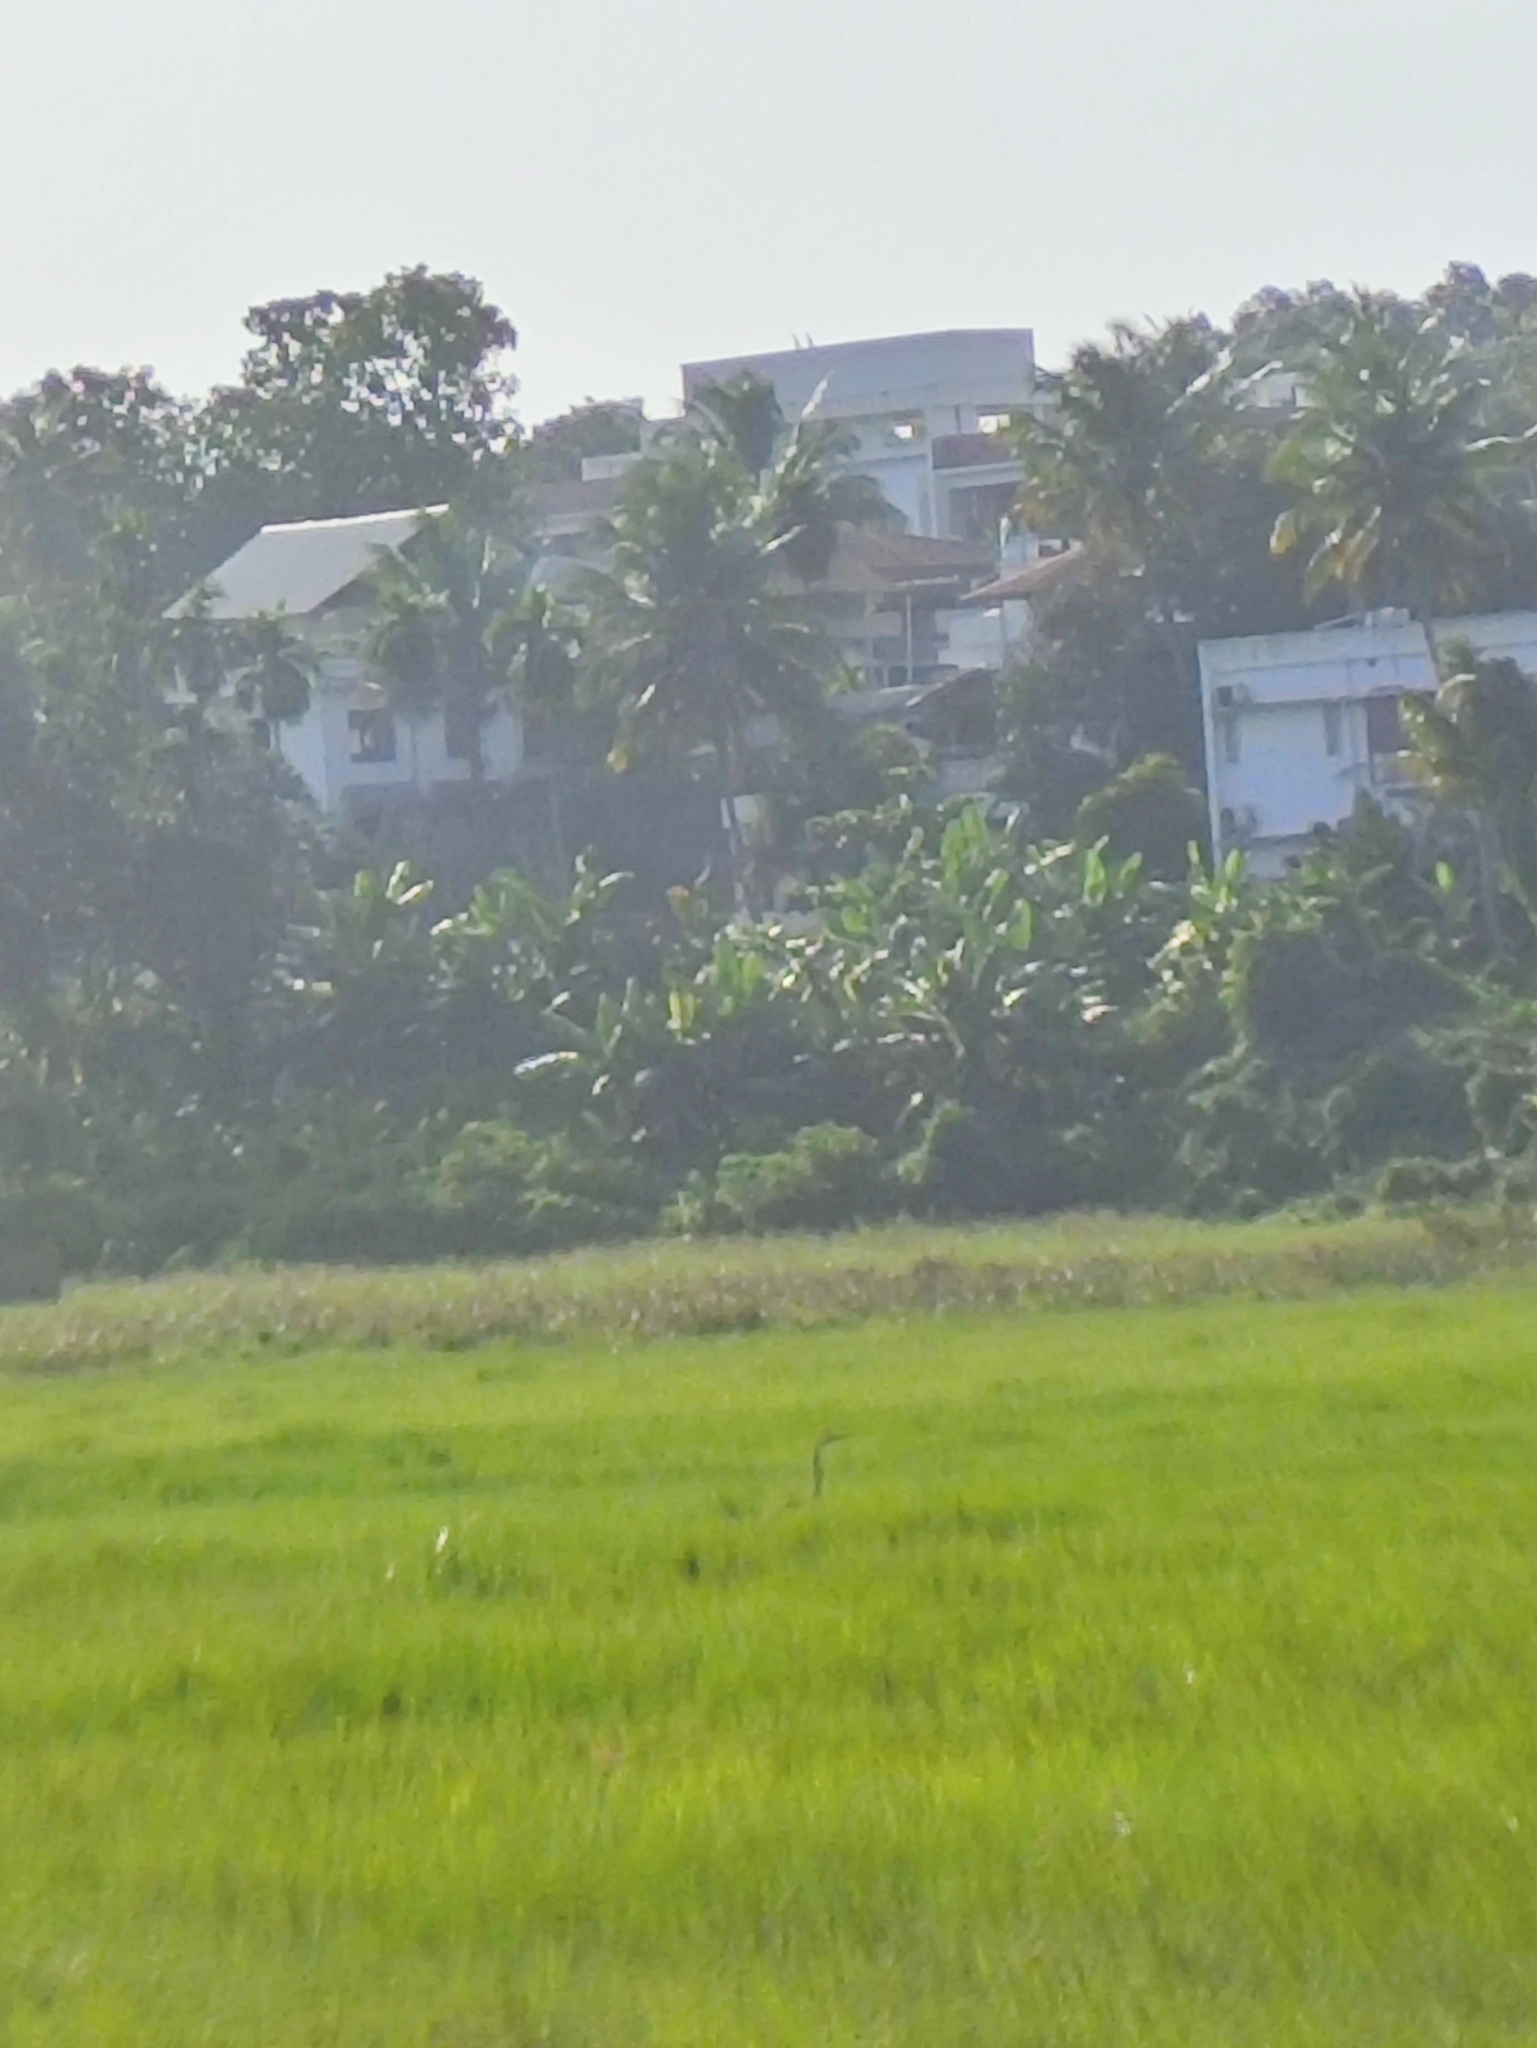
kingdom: Animalia
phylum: Chordata
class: Aves
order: Pelecaniformes
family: Ardeidae
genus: Ardea
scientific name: Ardea purpurea
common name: Purple heron
